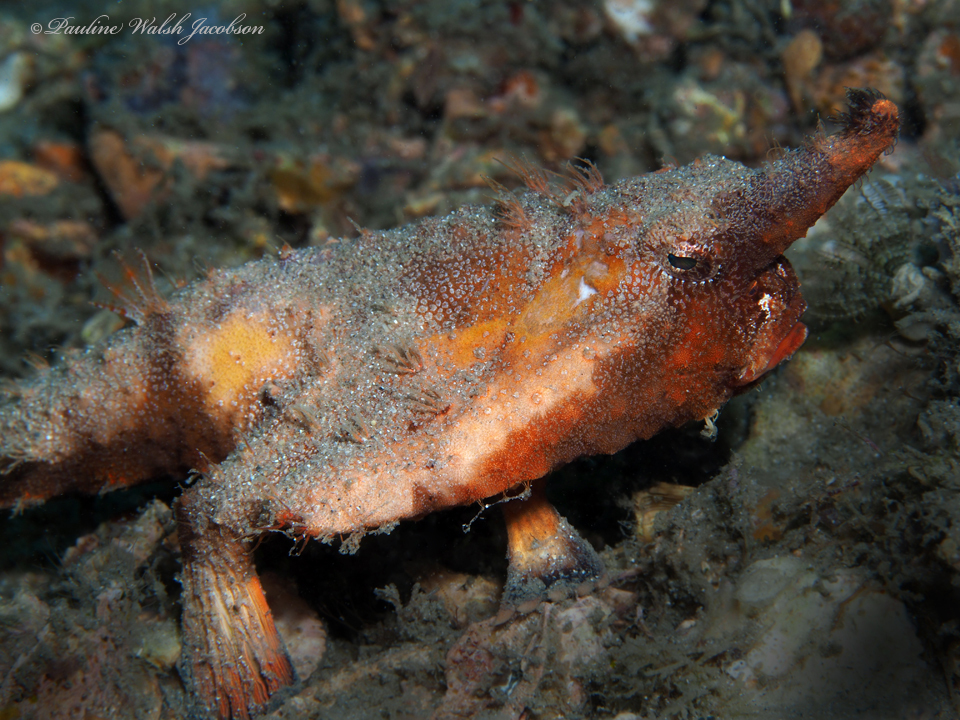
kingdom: Animalia
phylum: Chordata
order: Lophiiformes
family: Ogcocephalidae
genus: Ogcocephalus
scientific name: Ogcocephalus corniger
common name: Longnose batfish
